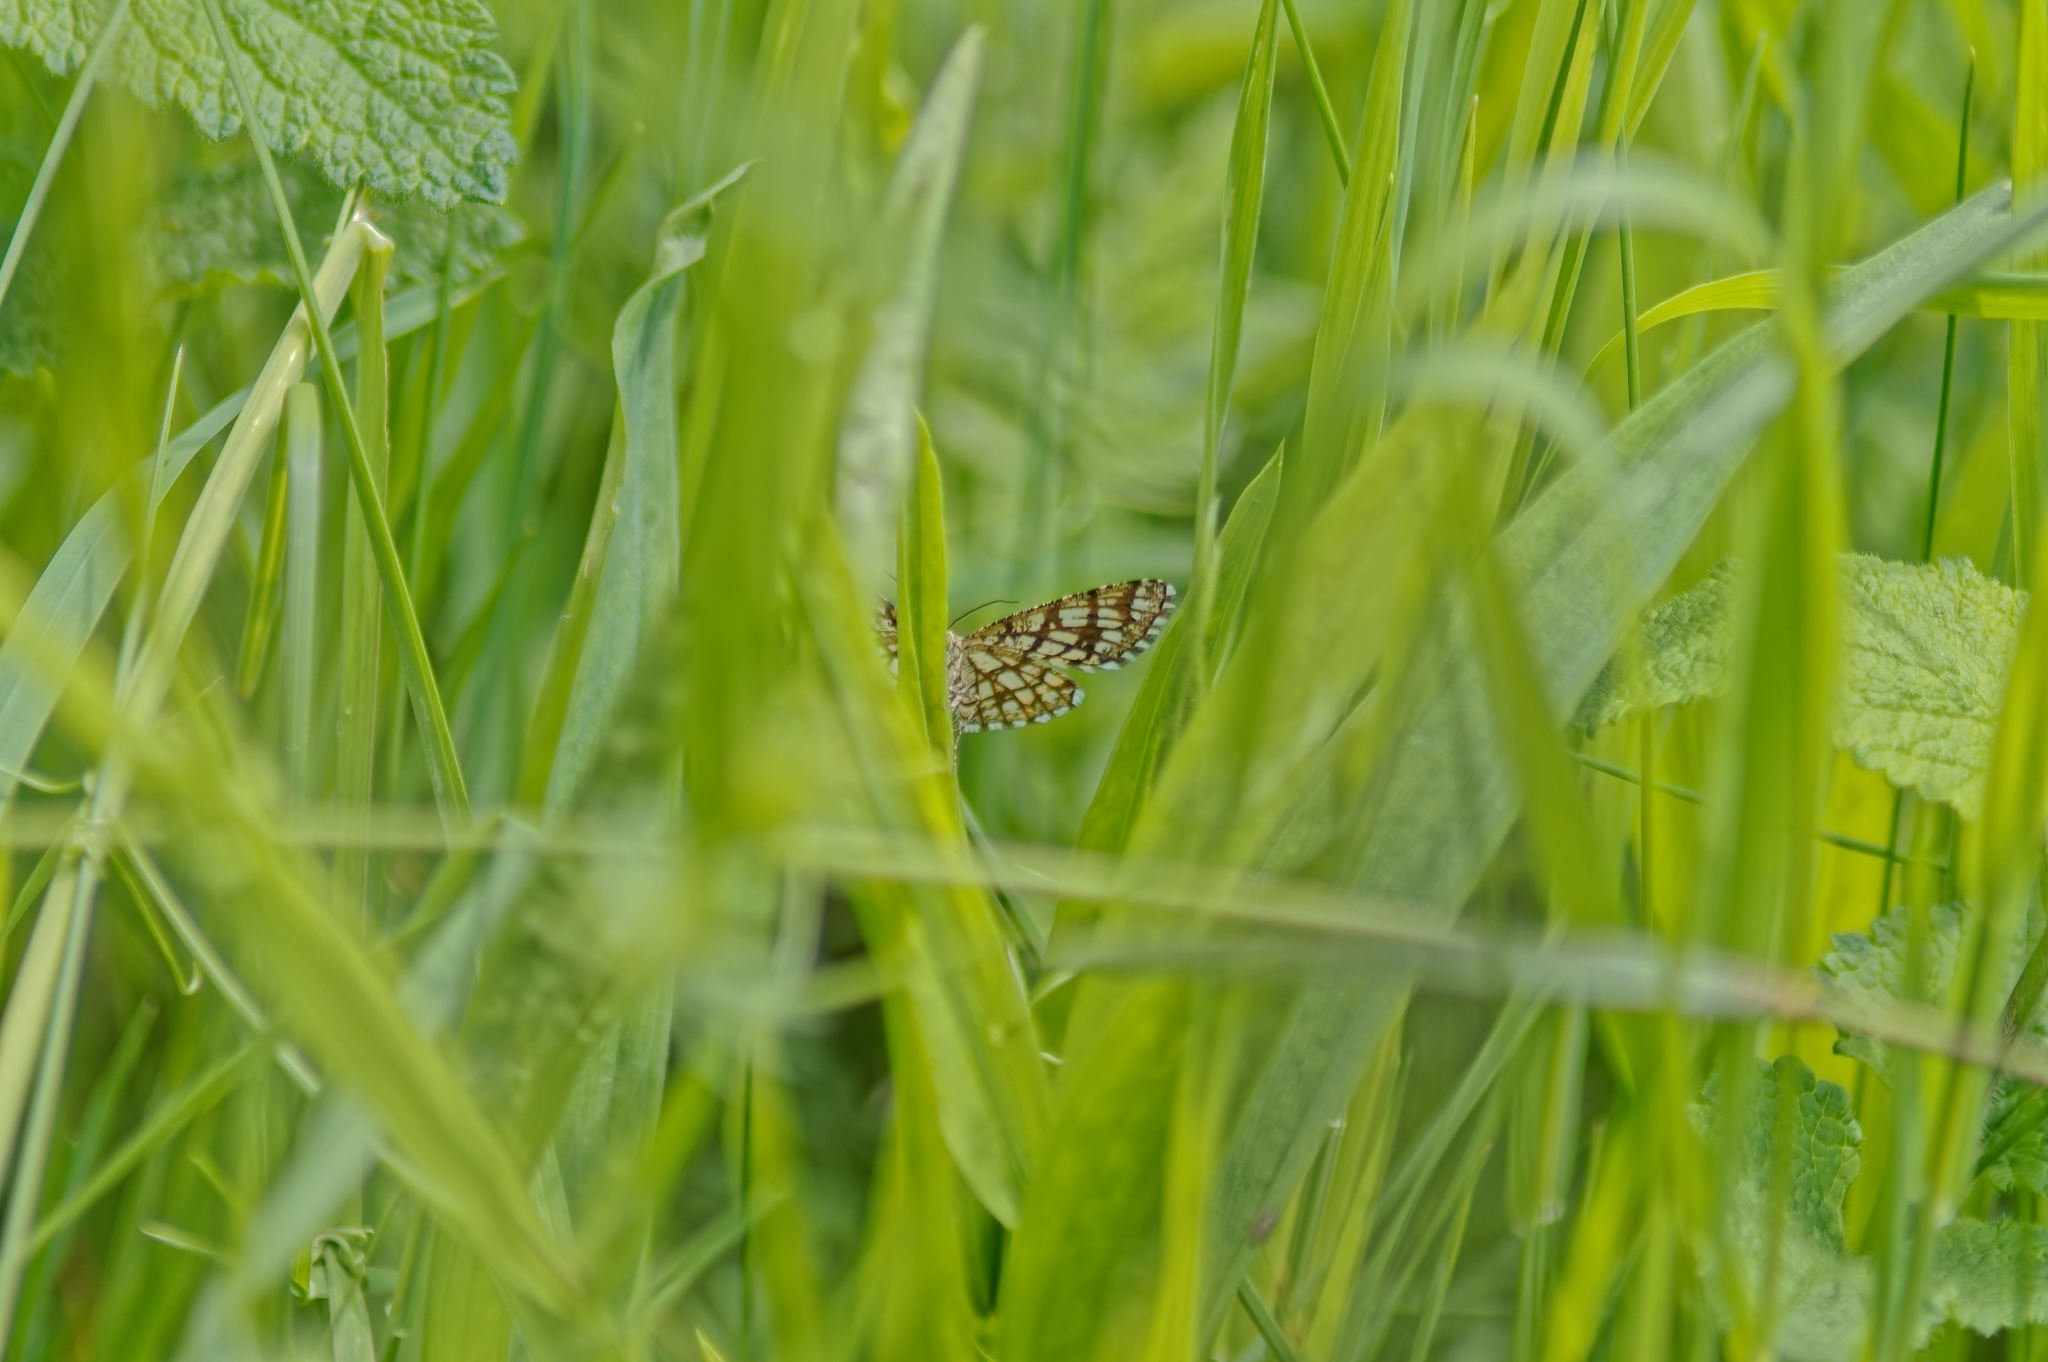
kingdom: Animalia
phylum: Arthropoda
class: Insecta
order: Lepidoptera
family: Geometridae
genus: Chiasmia
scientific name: Chiasmia clathrata
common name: Latticed heath
